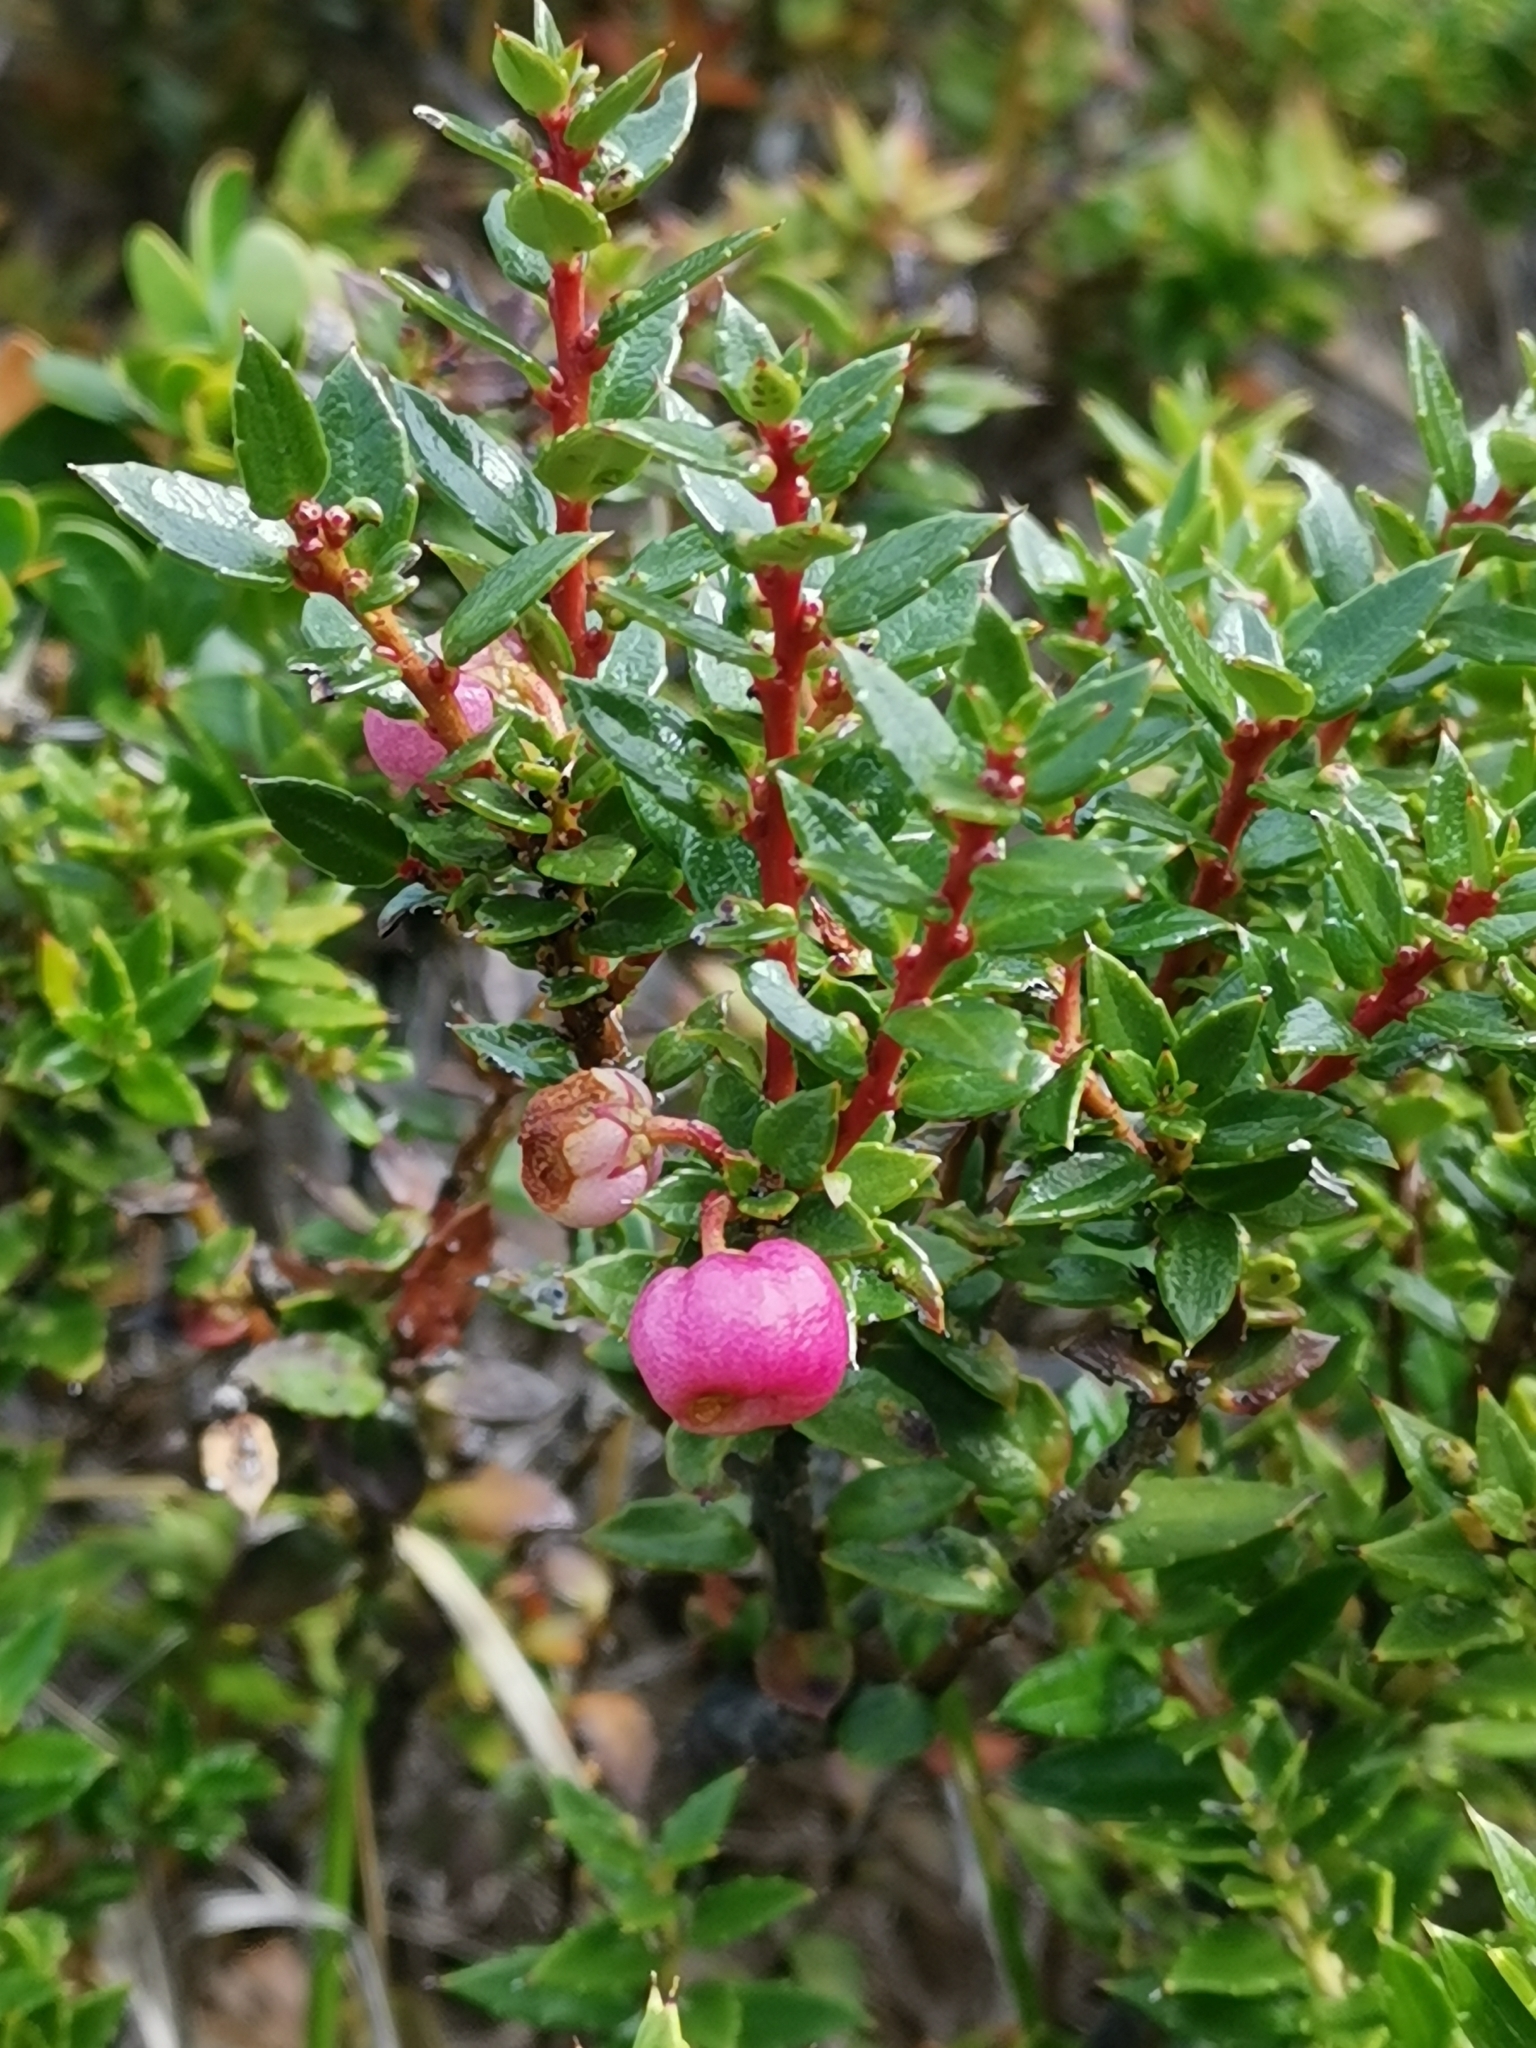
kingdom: Plantae
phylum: Tracheophyta
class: Magnoliopsida
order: Ericales
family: Ericaceae
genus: Gaultheria
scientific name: Gaultheria mucronata
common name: Prickly heath
